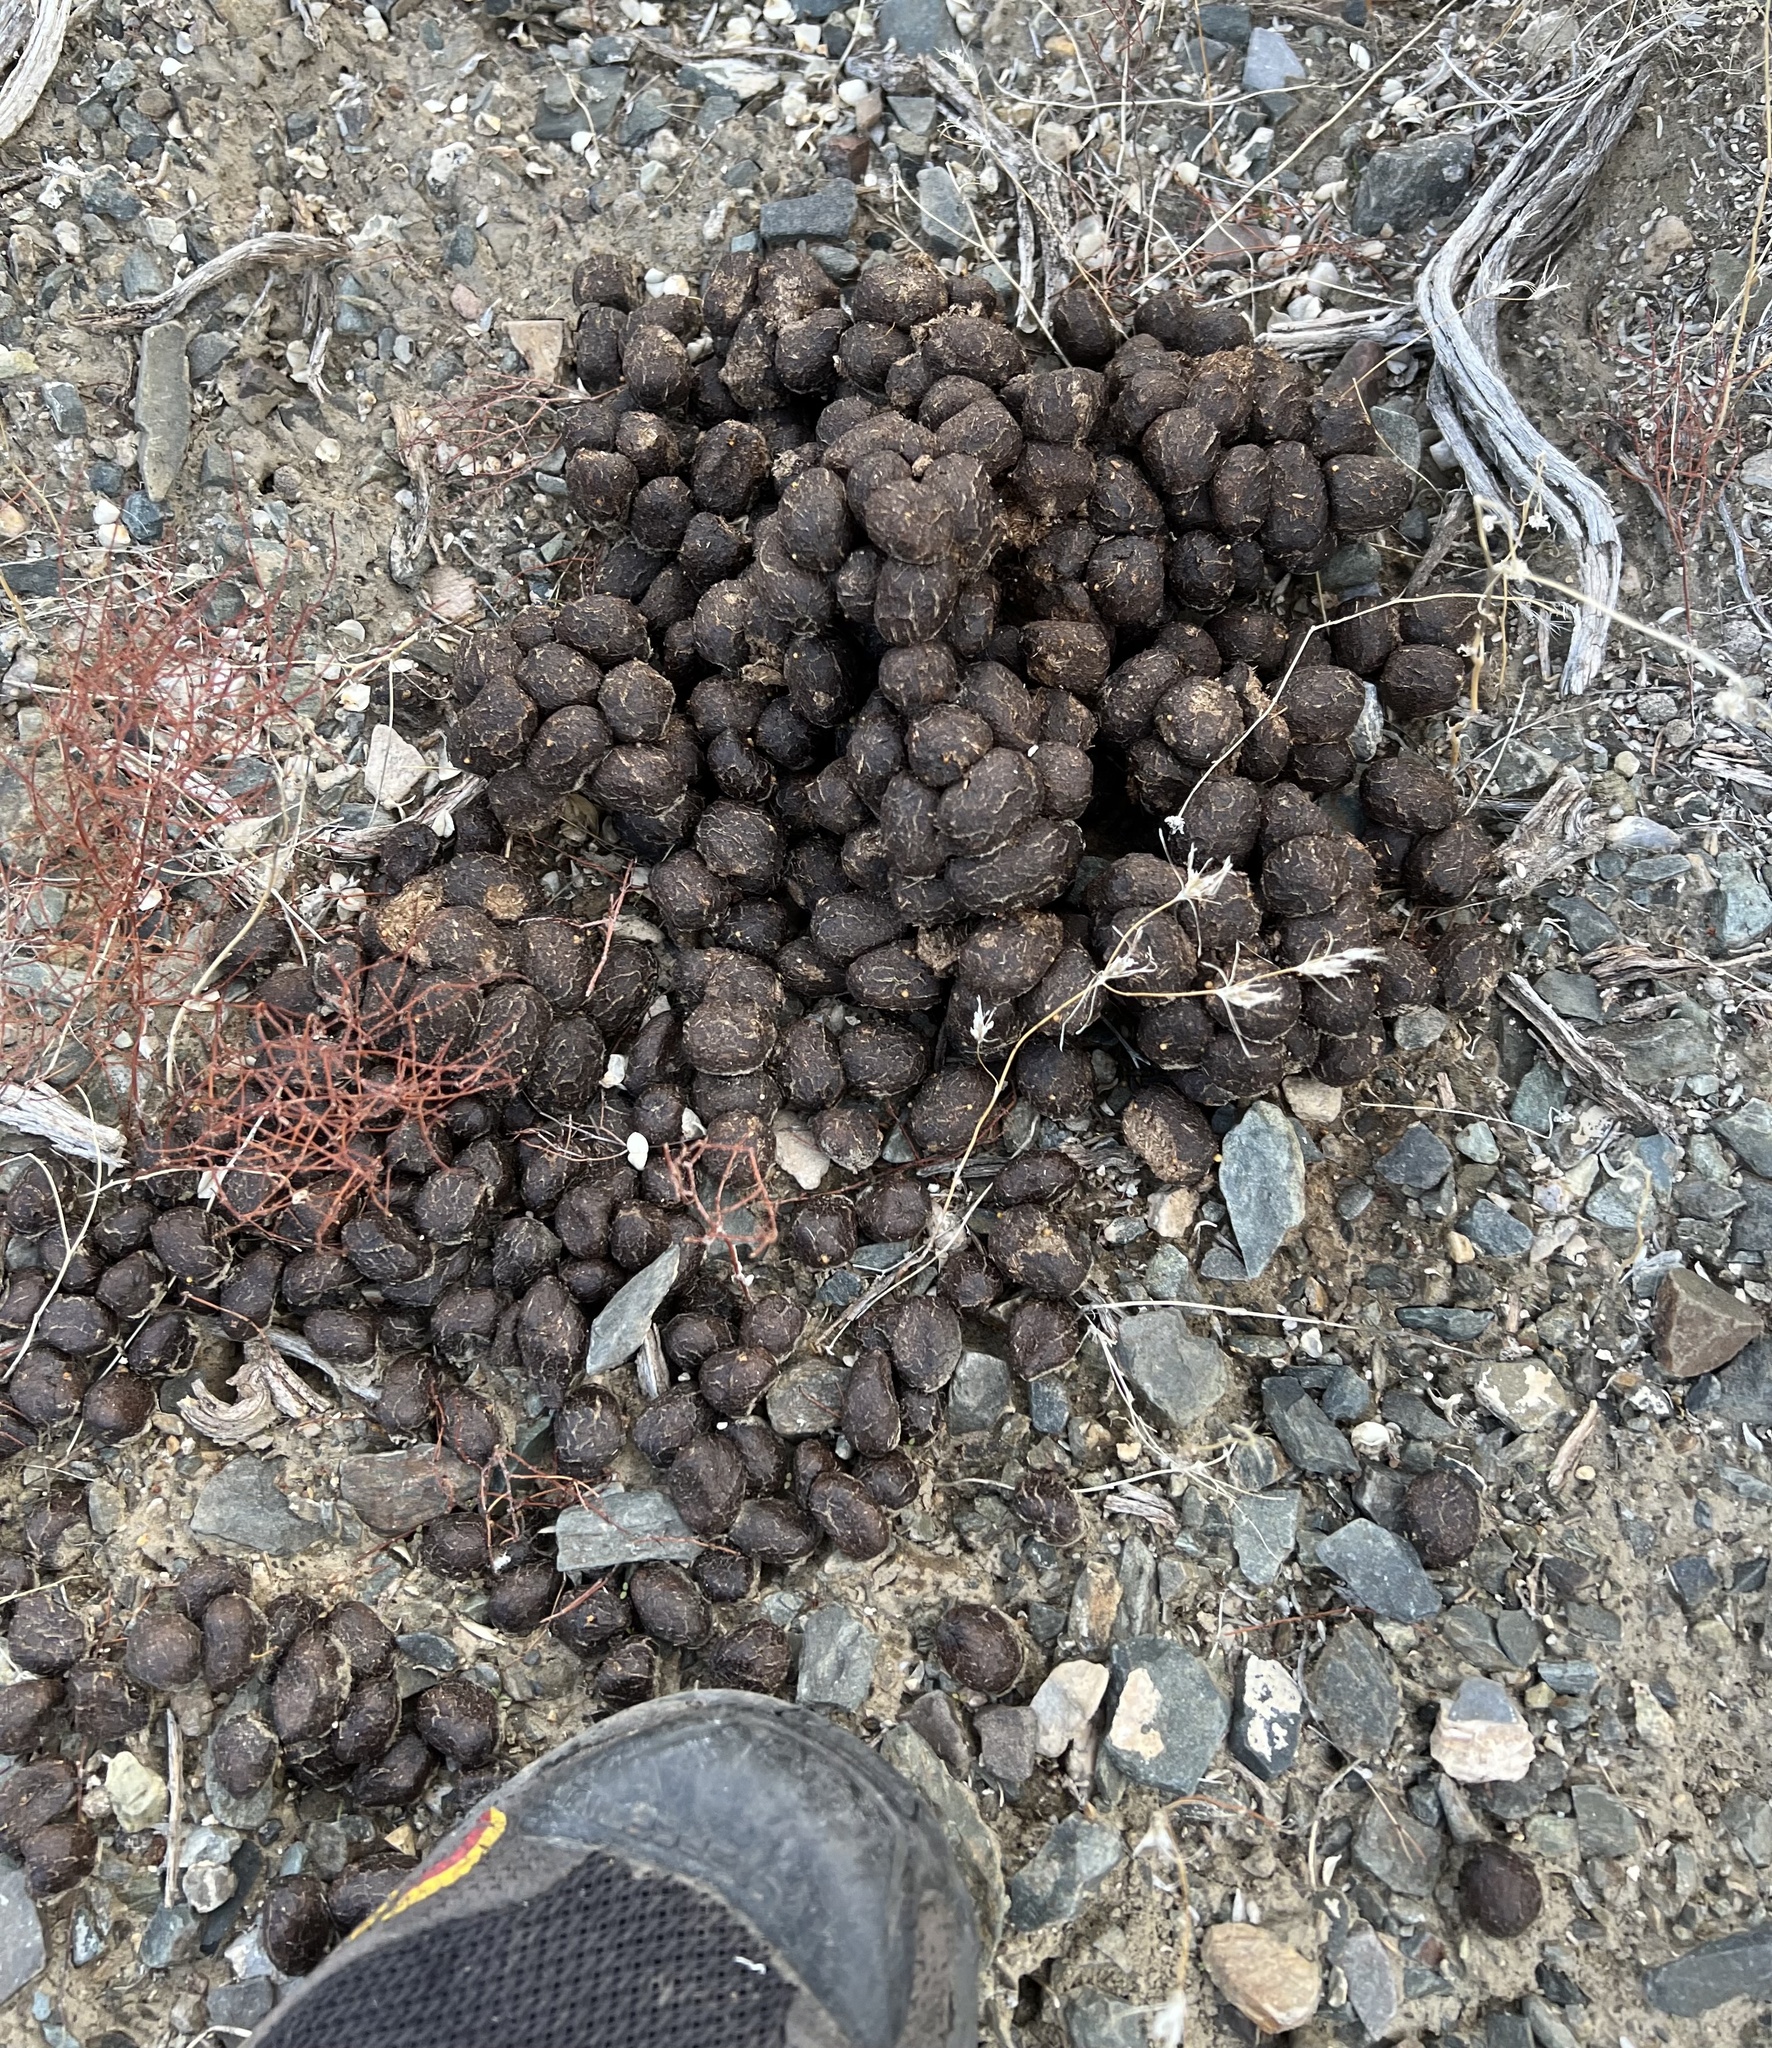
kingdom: Animalia
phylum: Chordata
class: Mammalia
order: Artiodactyla
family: Cervidae
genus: Cervus
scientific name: Cervus elaphus
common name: Red deer
